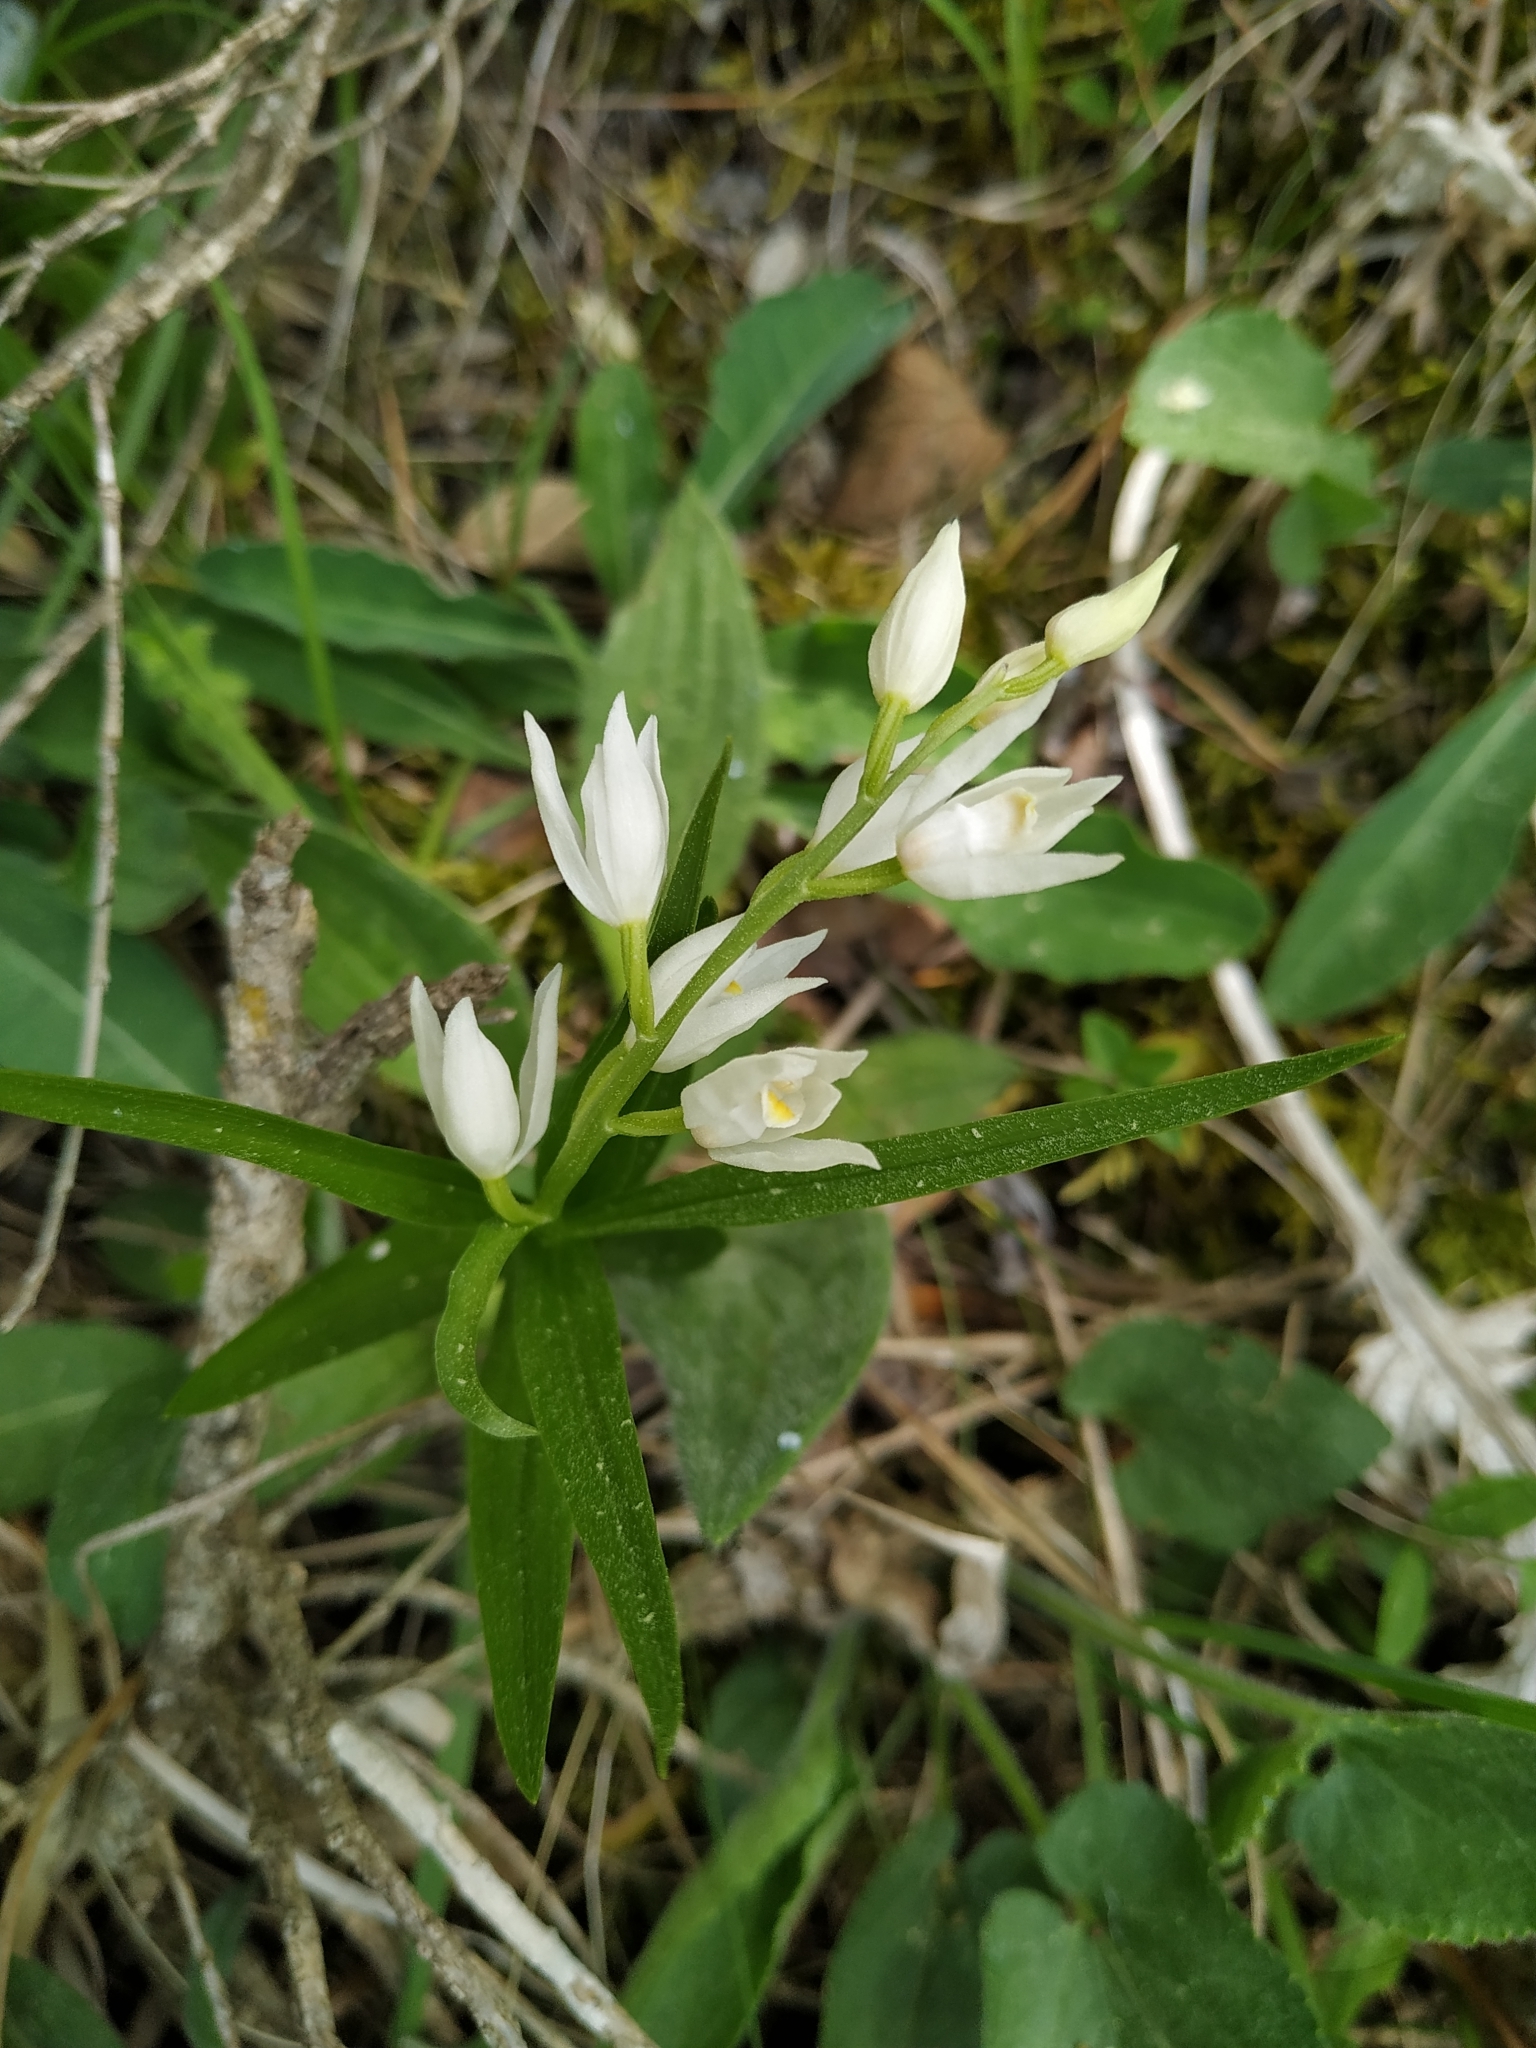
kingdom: Plantae
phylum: Tracheophyta
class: Liliopsida
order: Asparagales
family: Orchidaceae
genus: Cephalanthera
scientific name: Cephalanthera longifolia
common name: Narrow-leaved helleborine
